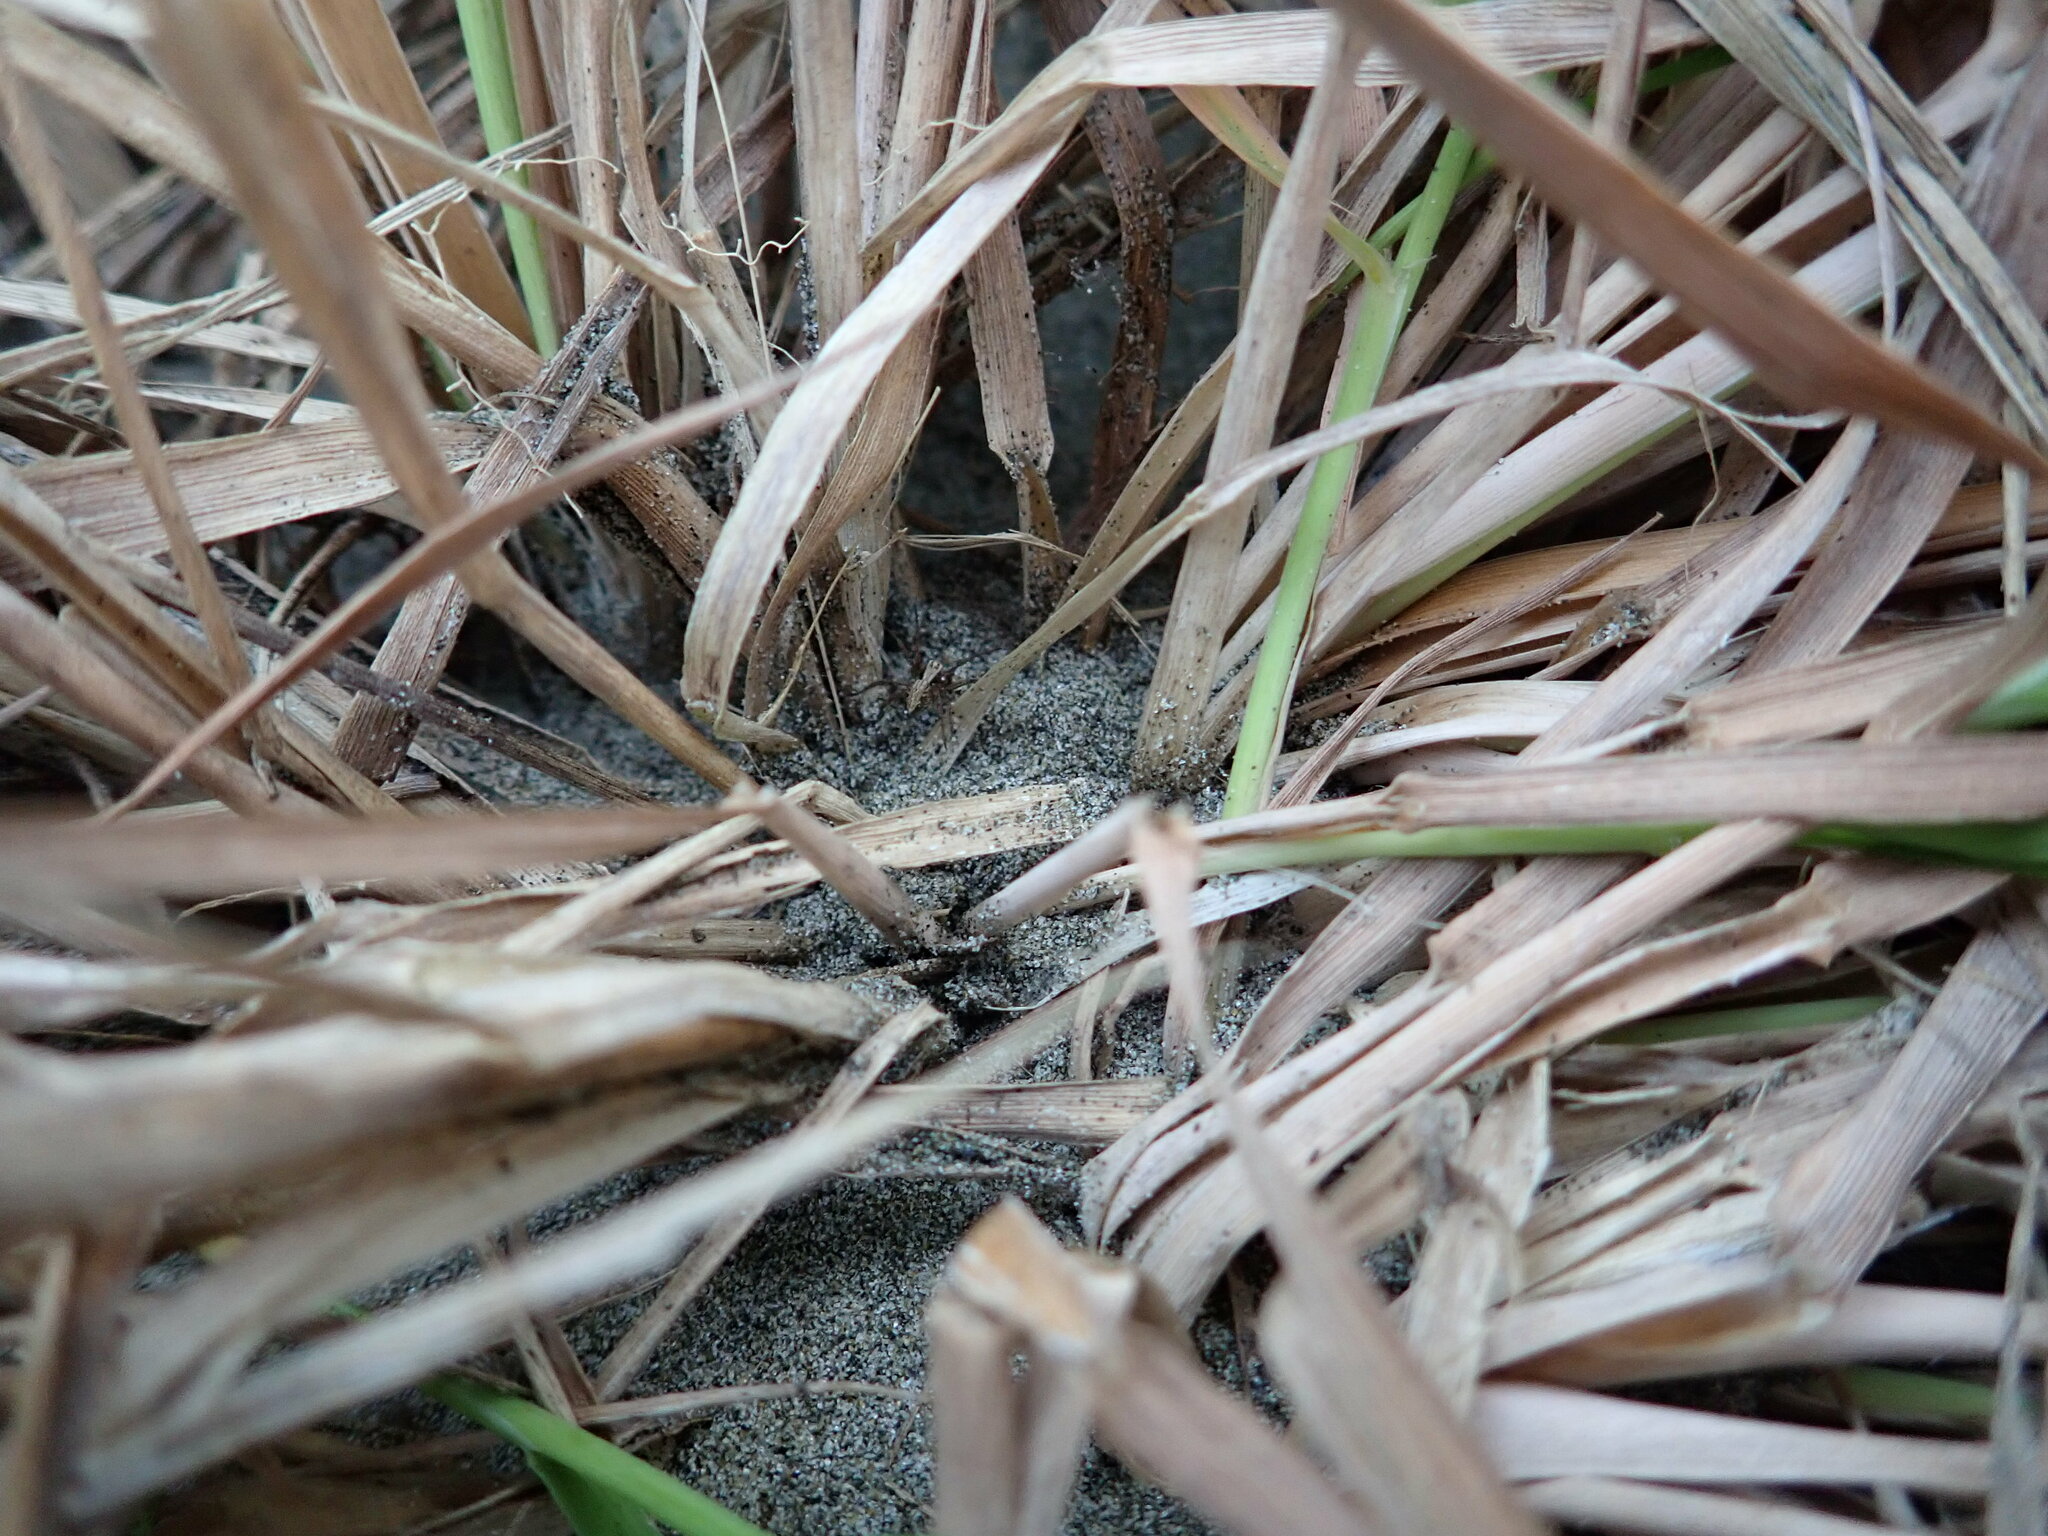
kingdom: Animalia
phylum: Arthropoda
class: Arachnida
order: Araneae
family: Oxyopidae
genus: Oxyopes
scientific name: Oxyopes gracilipes
